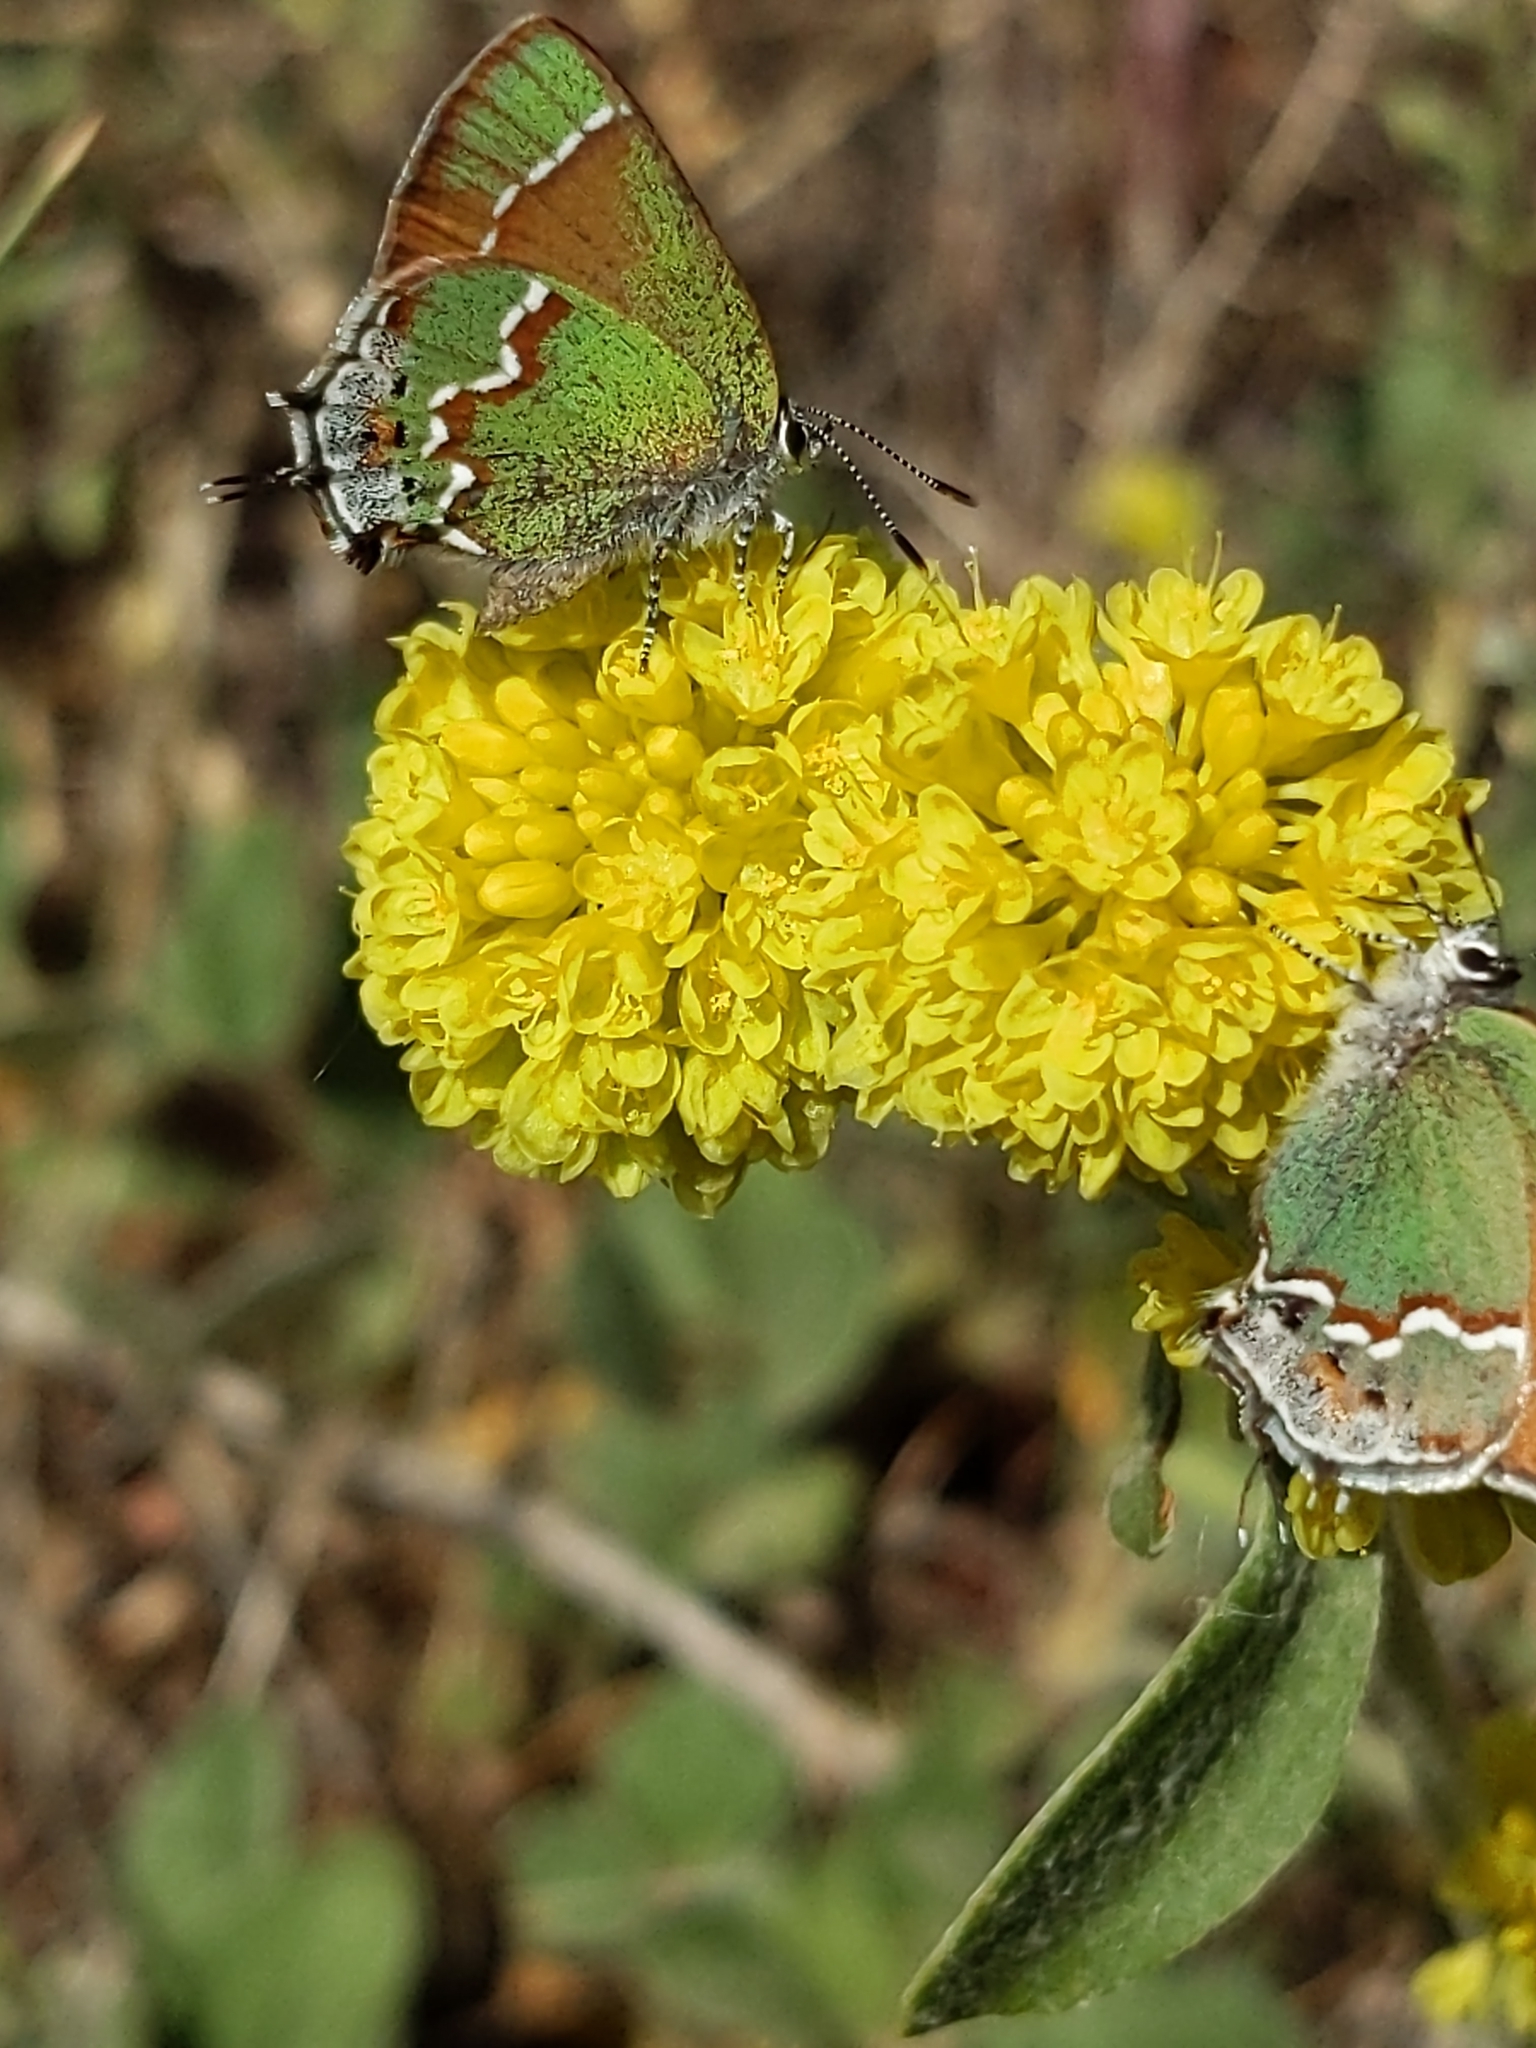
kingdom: Animalia
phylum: Arthropoda
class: Insecta
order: Lepidoptera
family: Lycaenidae
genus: Mitoura
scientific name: Mitoura gryneus
